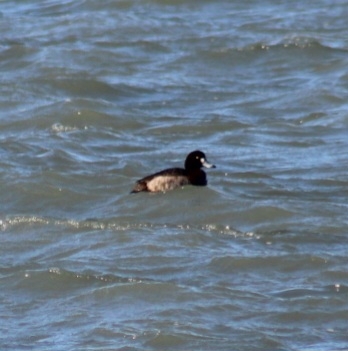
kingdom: Animalia
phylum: Chordata
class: Aves
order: Anseriformes
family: Anatidae
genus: Aythya
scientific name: Aythya marila
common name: Greater scaup
